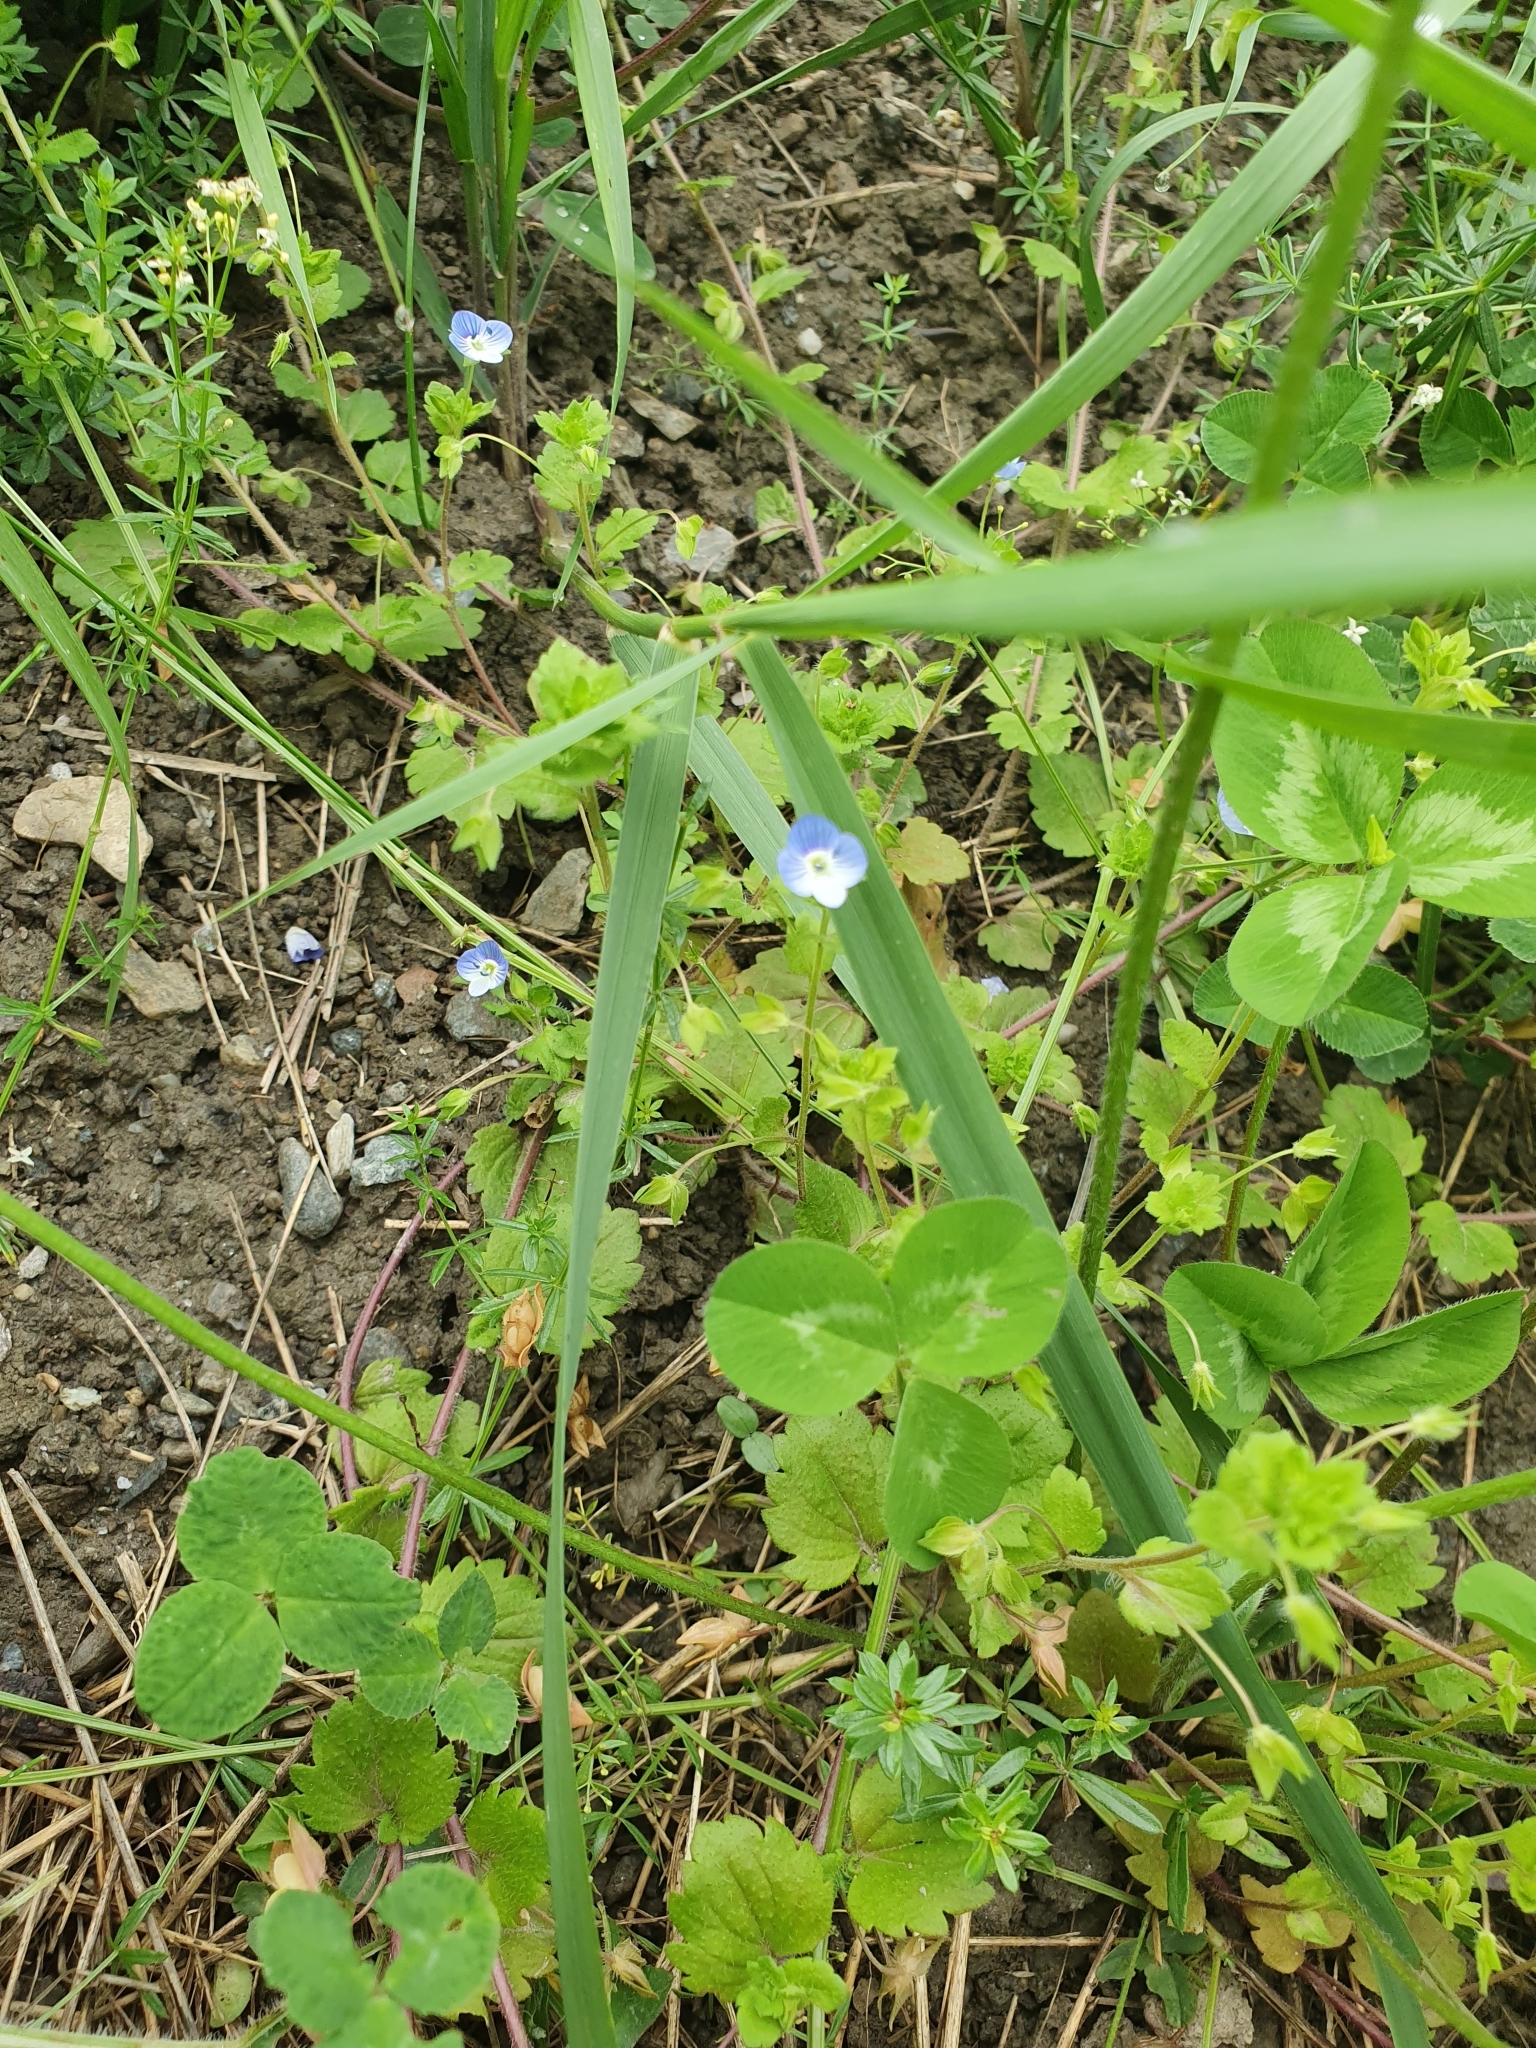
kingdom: Plantae
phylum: Tracheophyta
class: Magnoliopsida
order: Lamiales
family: Plantaginaceae
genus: Veronica
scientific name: Veronica persica
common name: Common field-speedwell
